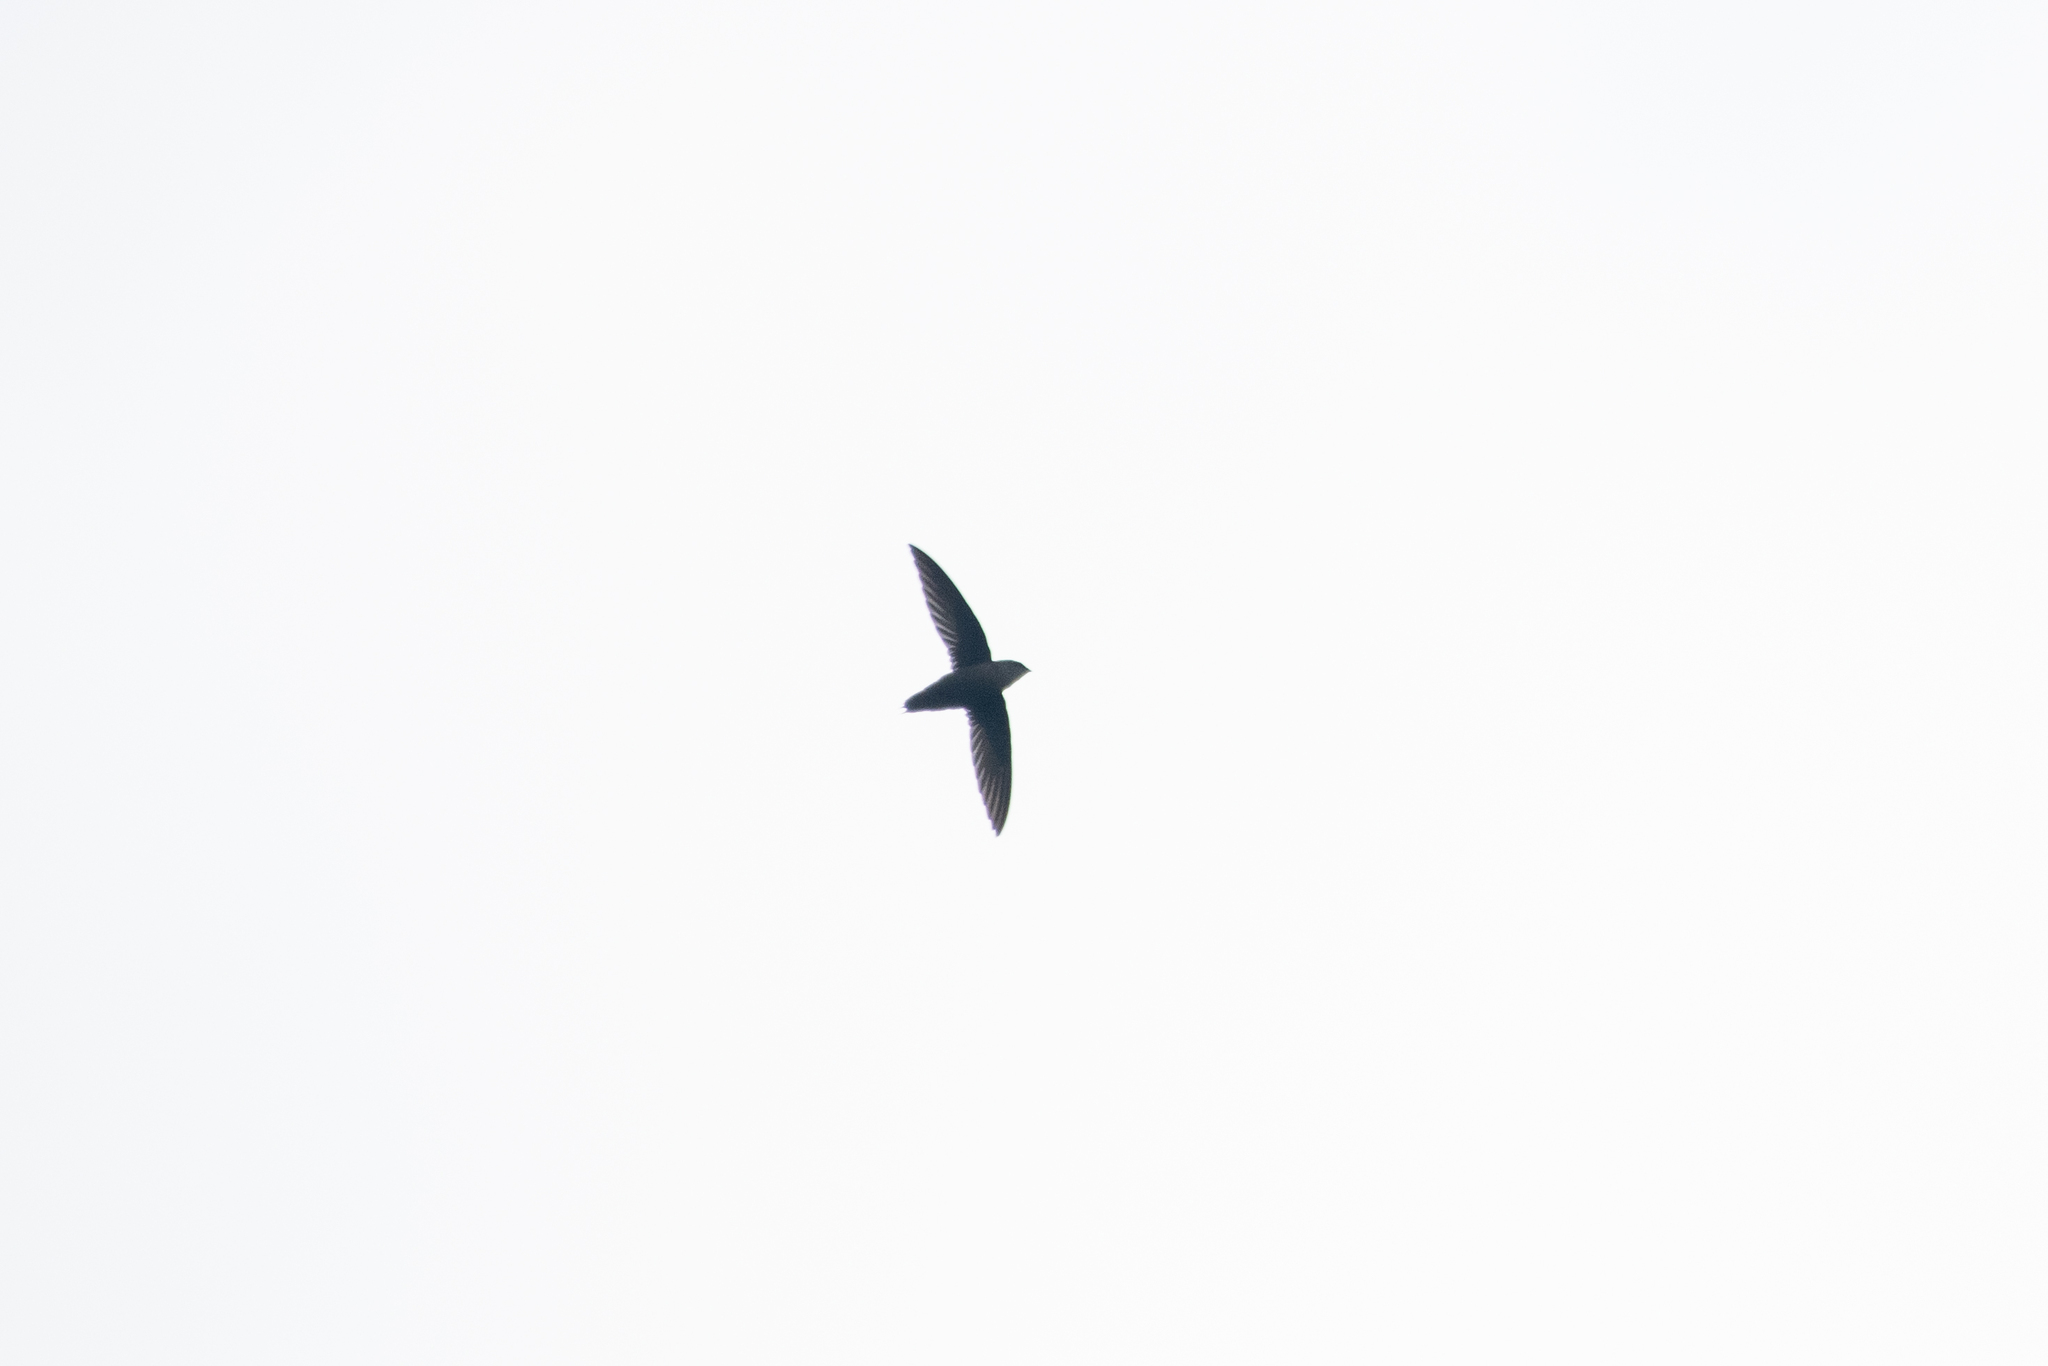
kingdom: Animalia
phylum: Chordata
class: Aves
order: Apodiformes
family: Apodidae
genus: Chaetura
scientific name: Chaetura vauxi
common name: Vaux's swift
